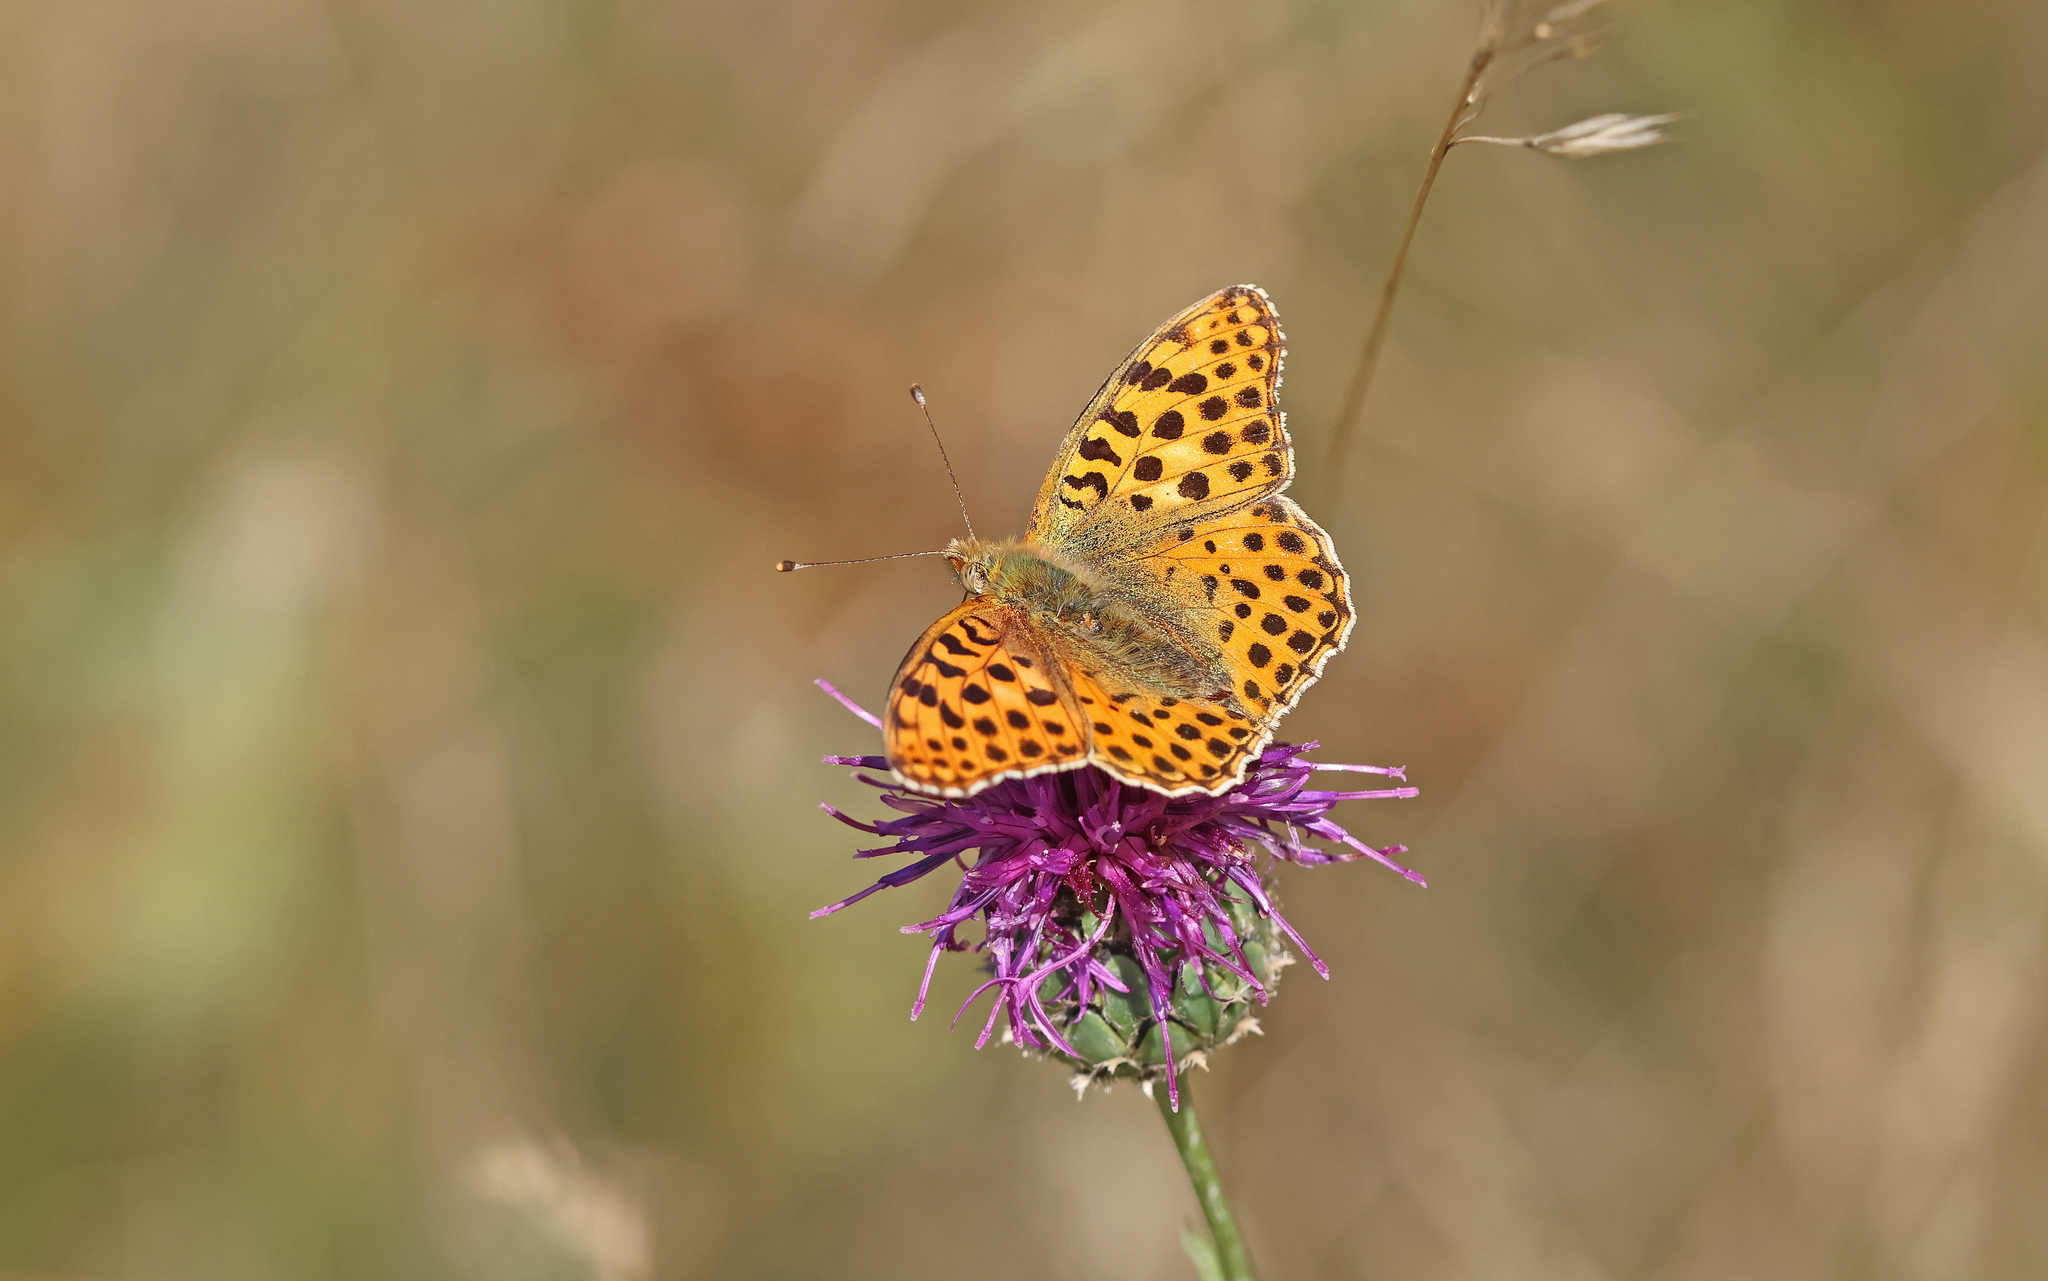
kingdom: Animalia
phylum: Arthropoda
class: Insecta
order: Lepidoptera
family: Nymphalidae
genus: Issoria
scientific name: Issoria lathonia
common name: Queen of spain fritillary
